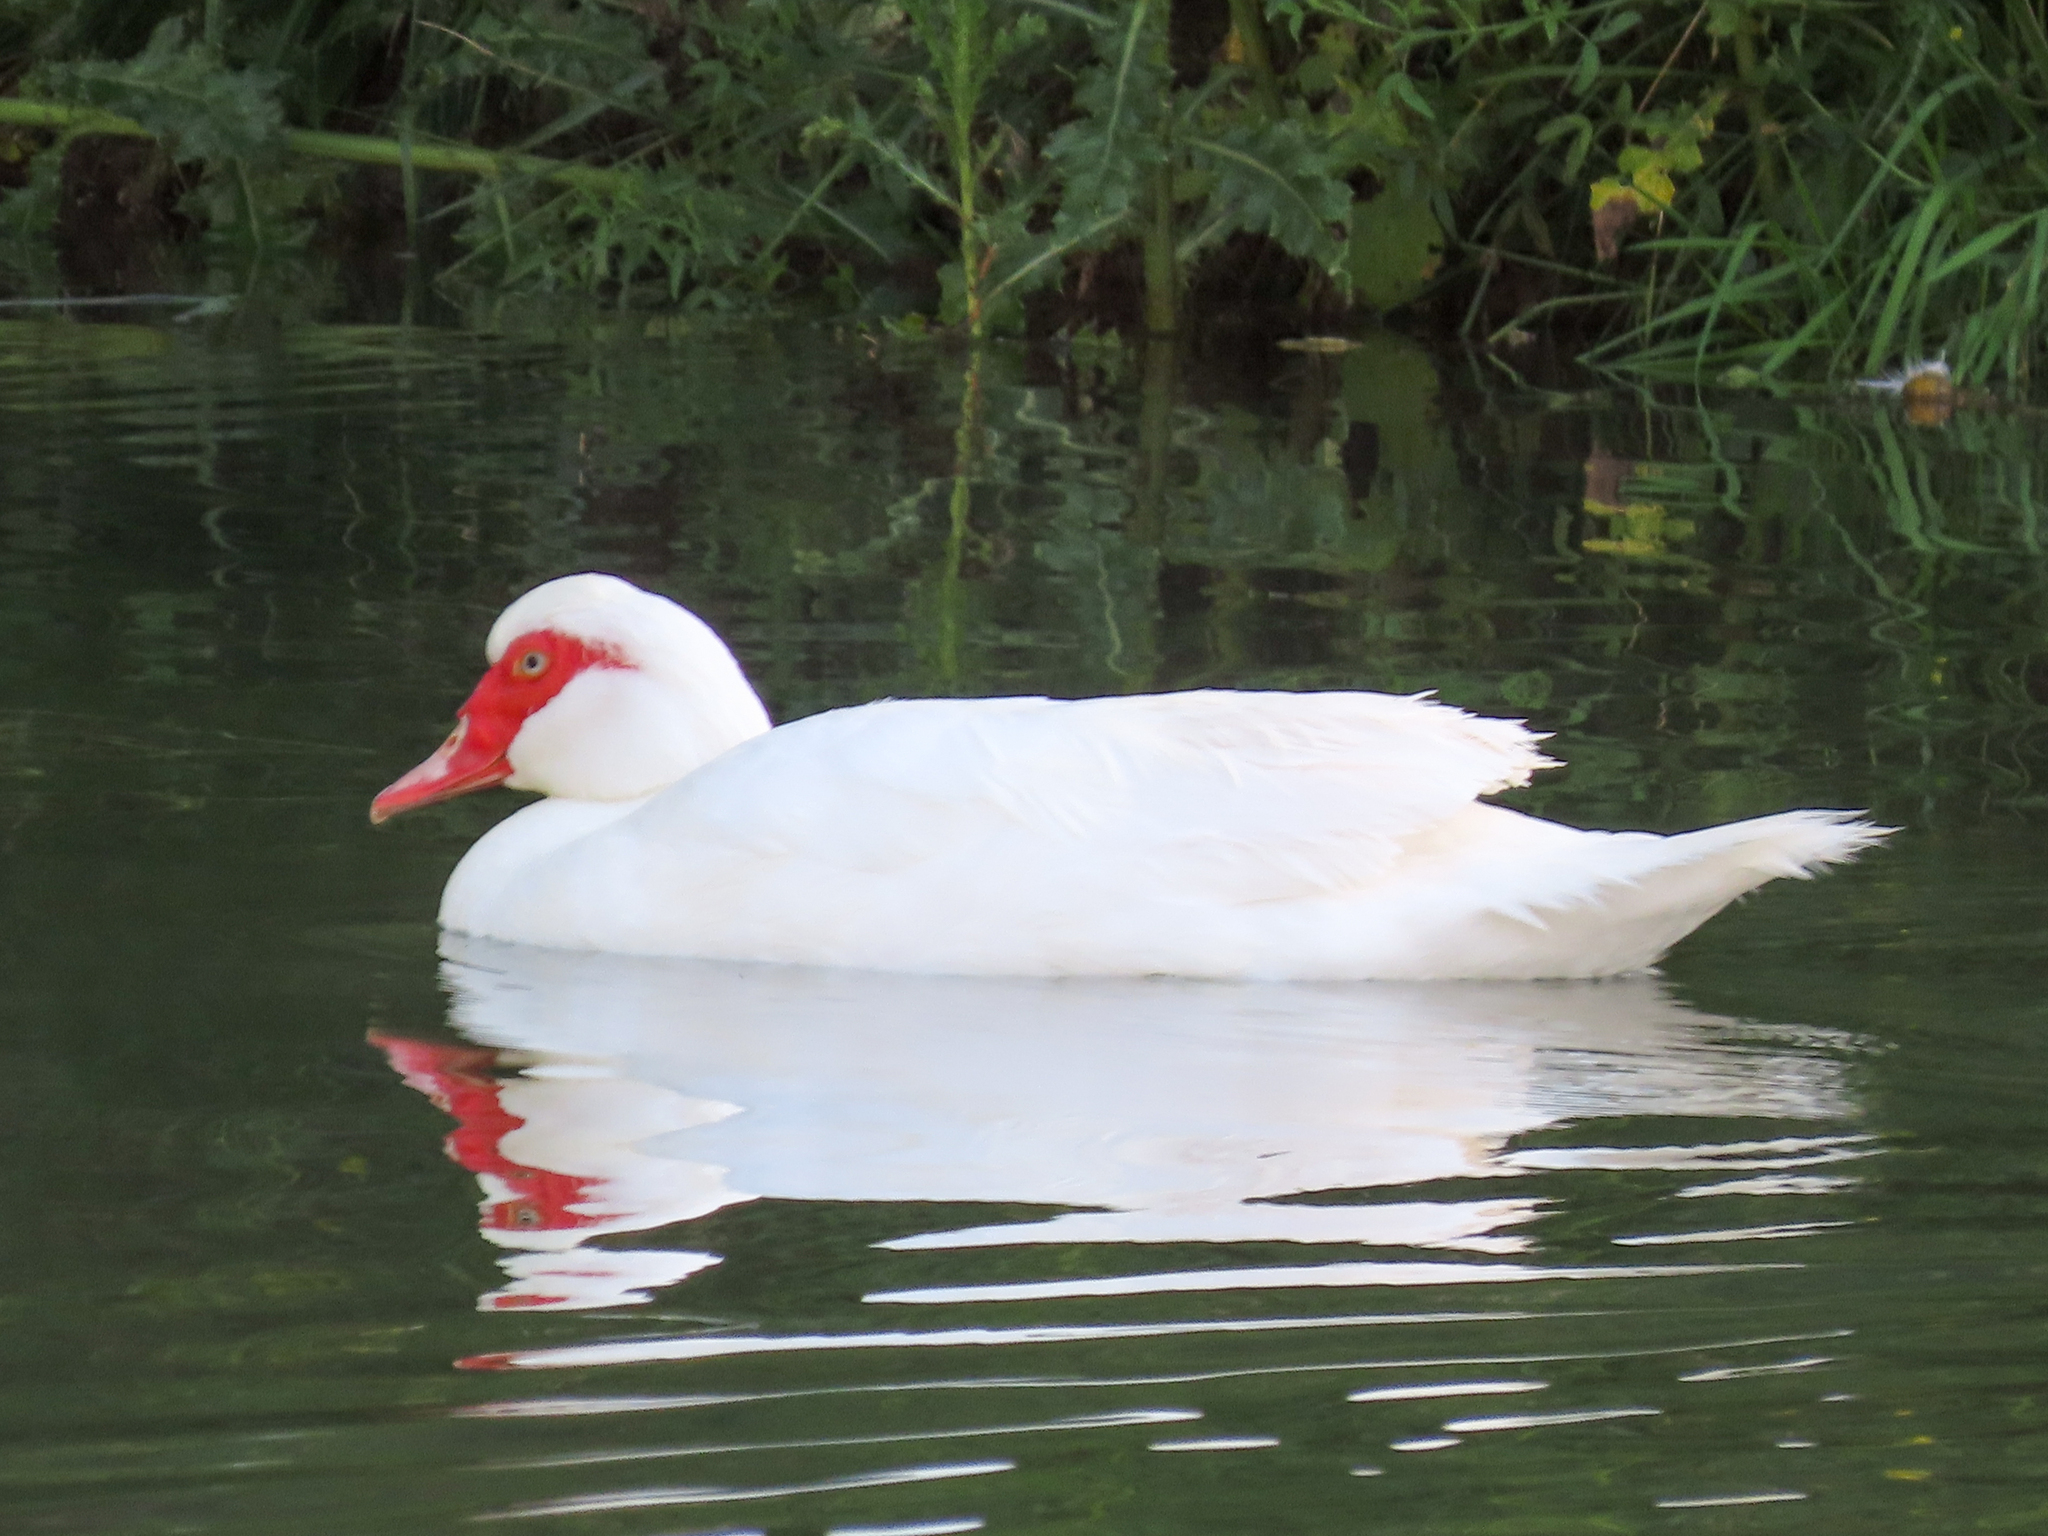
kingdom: Animalia
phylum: Chordata
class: Aves
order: Anseriformes
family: Anatidae
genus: Cairina
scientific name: Cairina moschata
